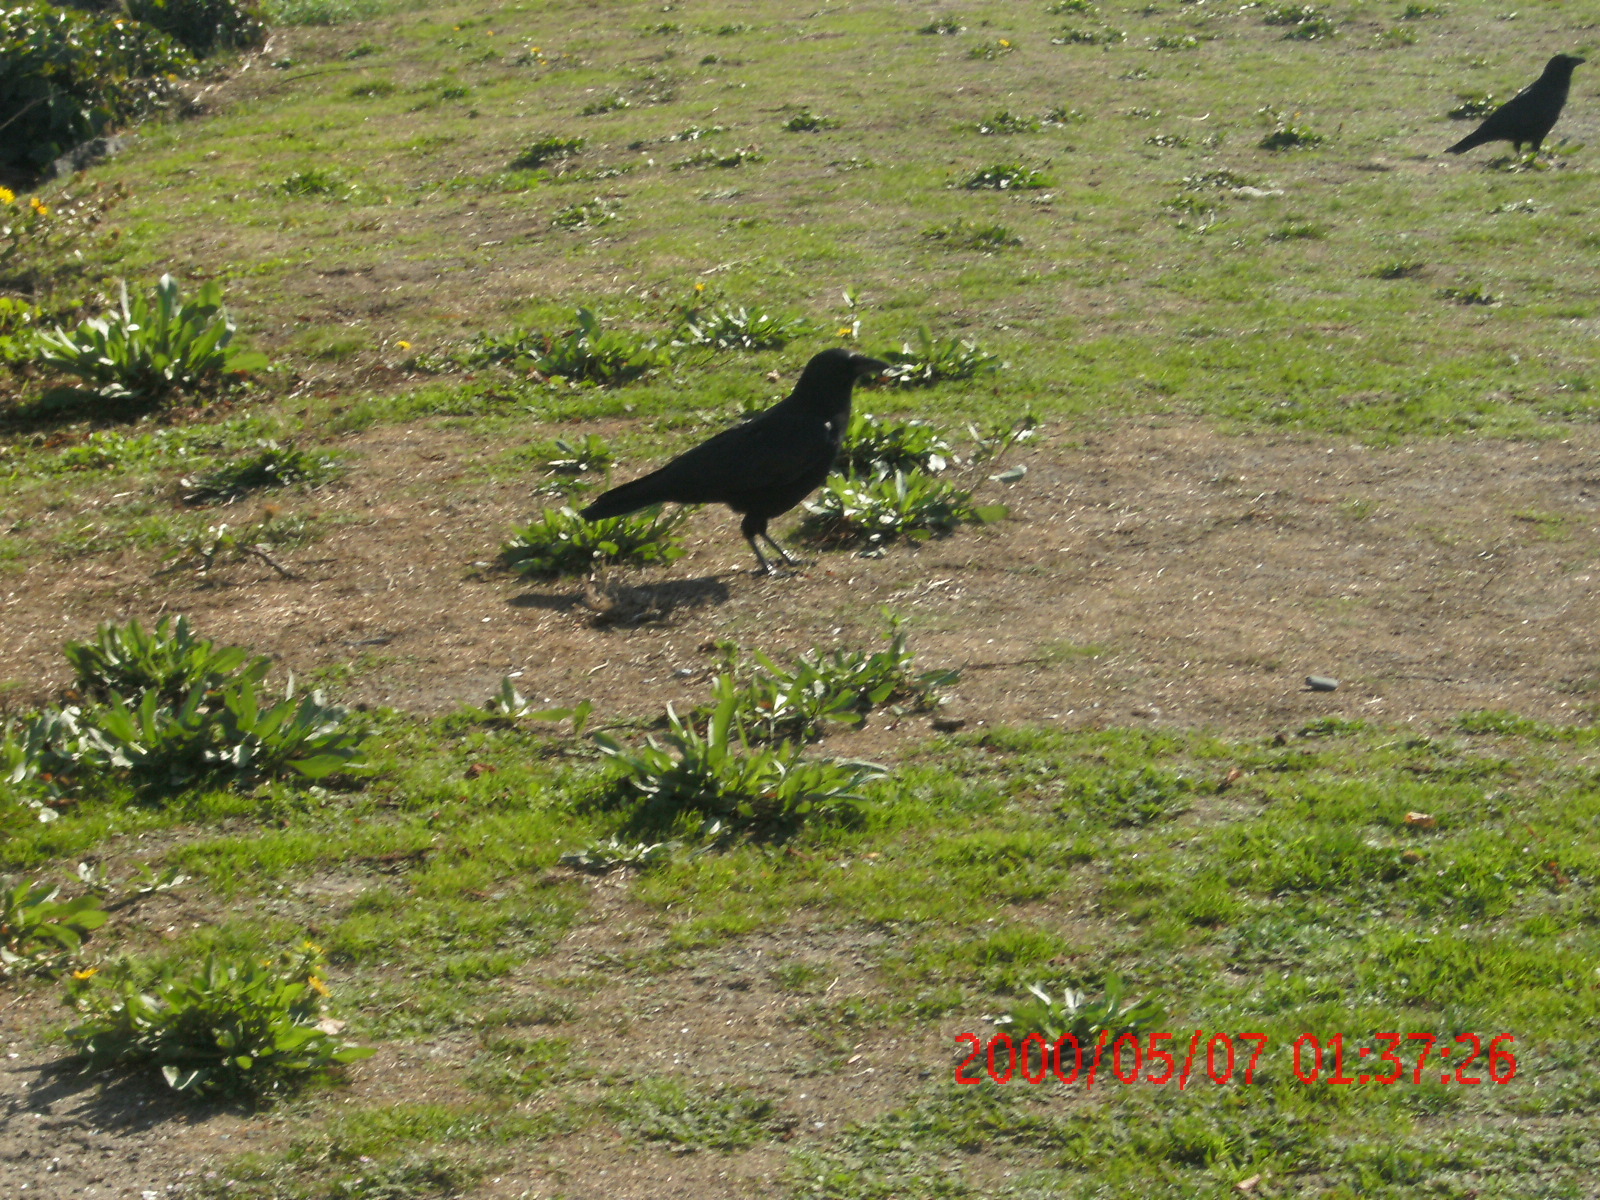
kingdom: Animalia
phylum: Chordata
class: Aves
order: Passeriformes
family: Corvidae
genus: Corvus
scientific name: Corvus brachyrhynchos
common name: American crow
